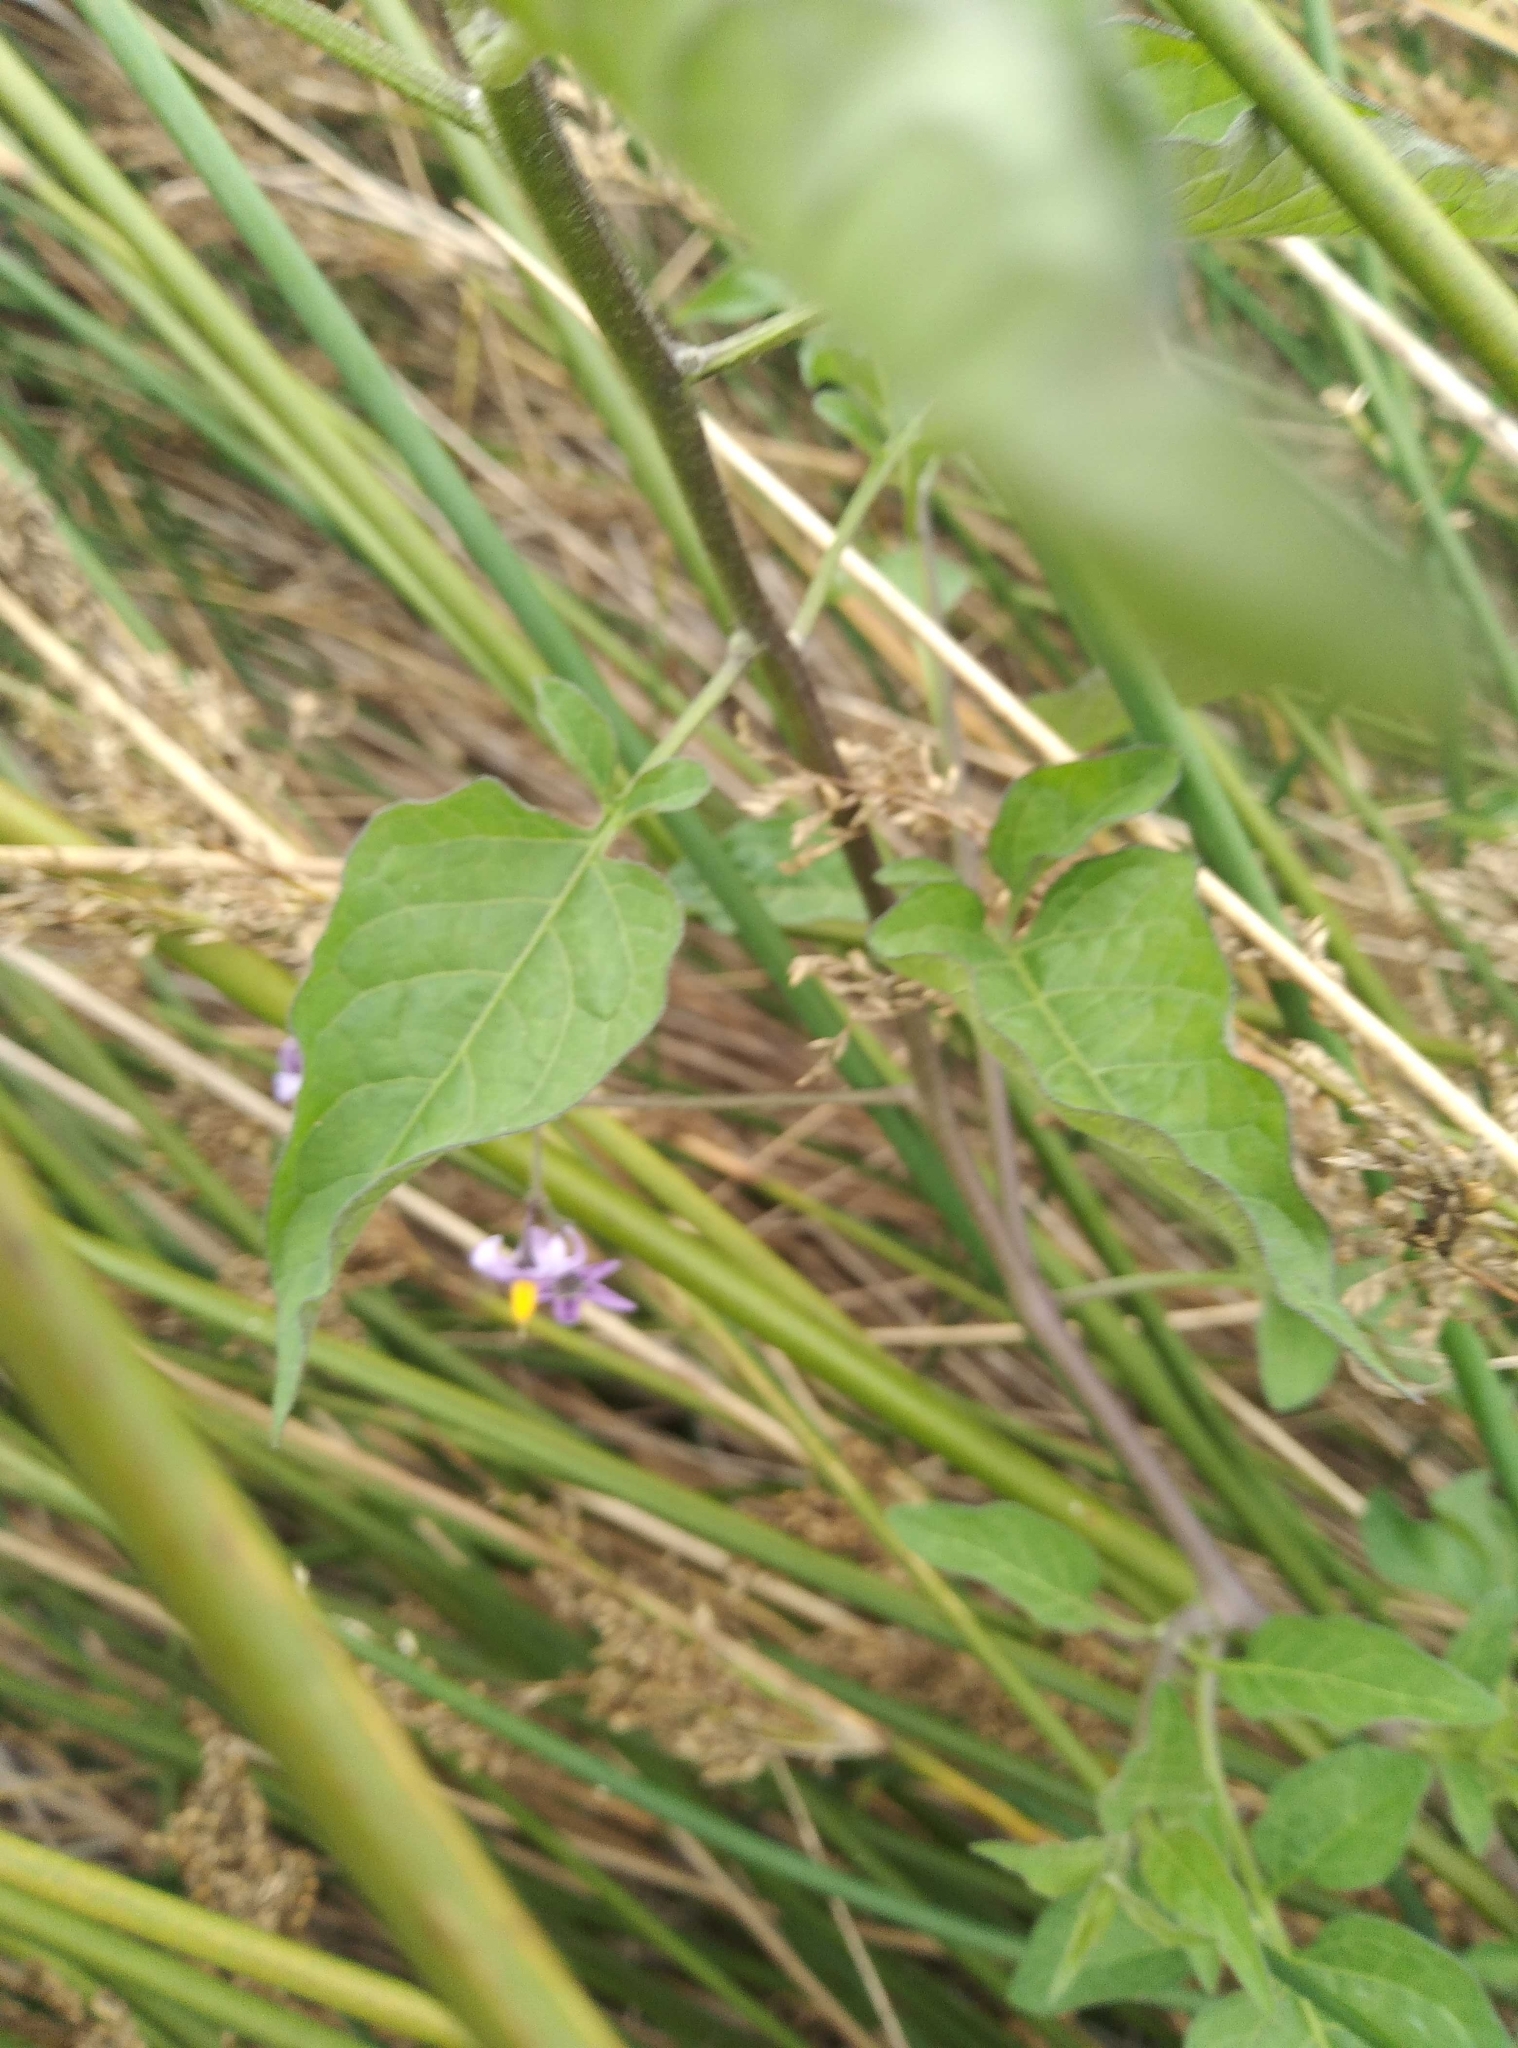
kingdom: Plantae
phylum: Tracheophyta
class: Magnoliopsida
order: Solanales
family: Solanaceae
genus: Solanum
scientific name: Solanum dulcamara
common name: Climbing nightshade
